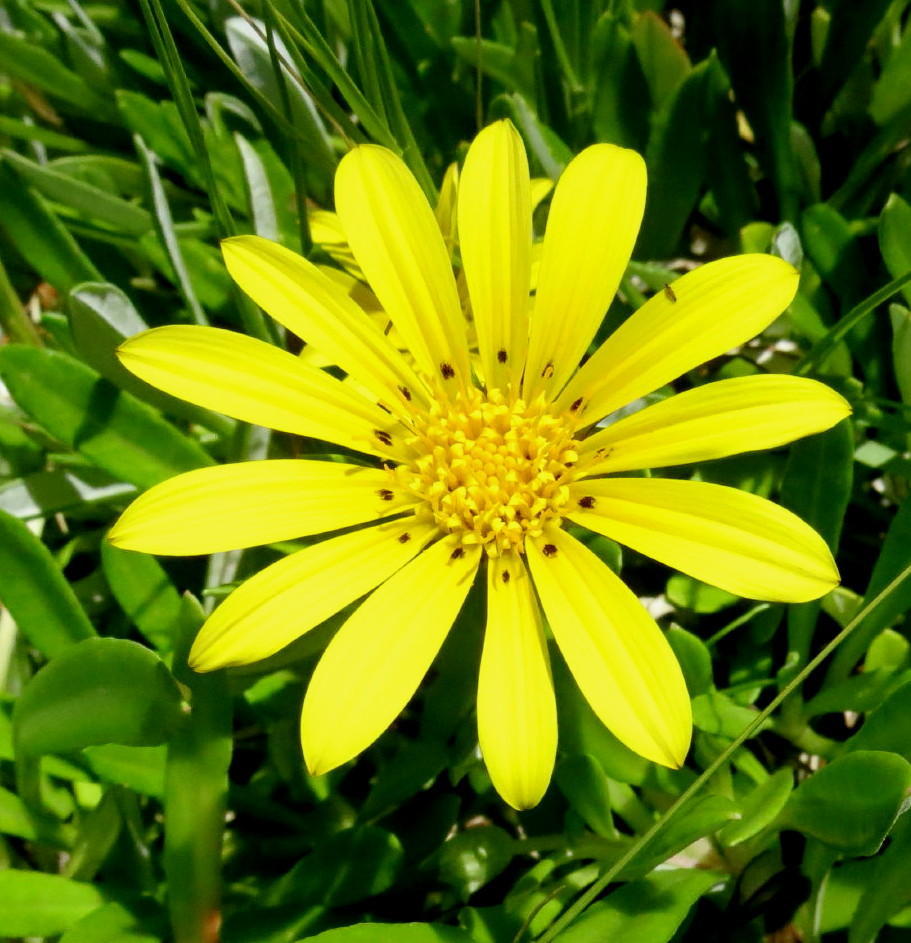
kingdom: Plantae
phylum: Tracheophyta
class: Magnoliopsida
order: Asterales
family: Asteraceae
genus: Gazania
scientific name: Gazania rigens
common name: Treasureflower
